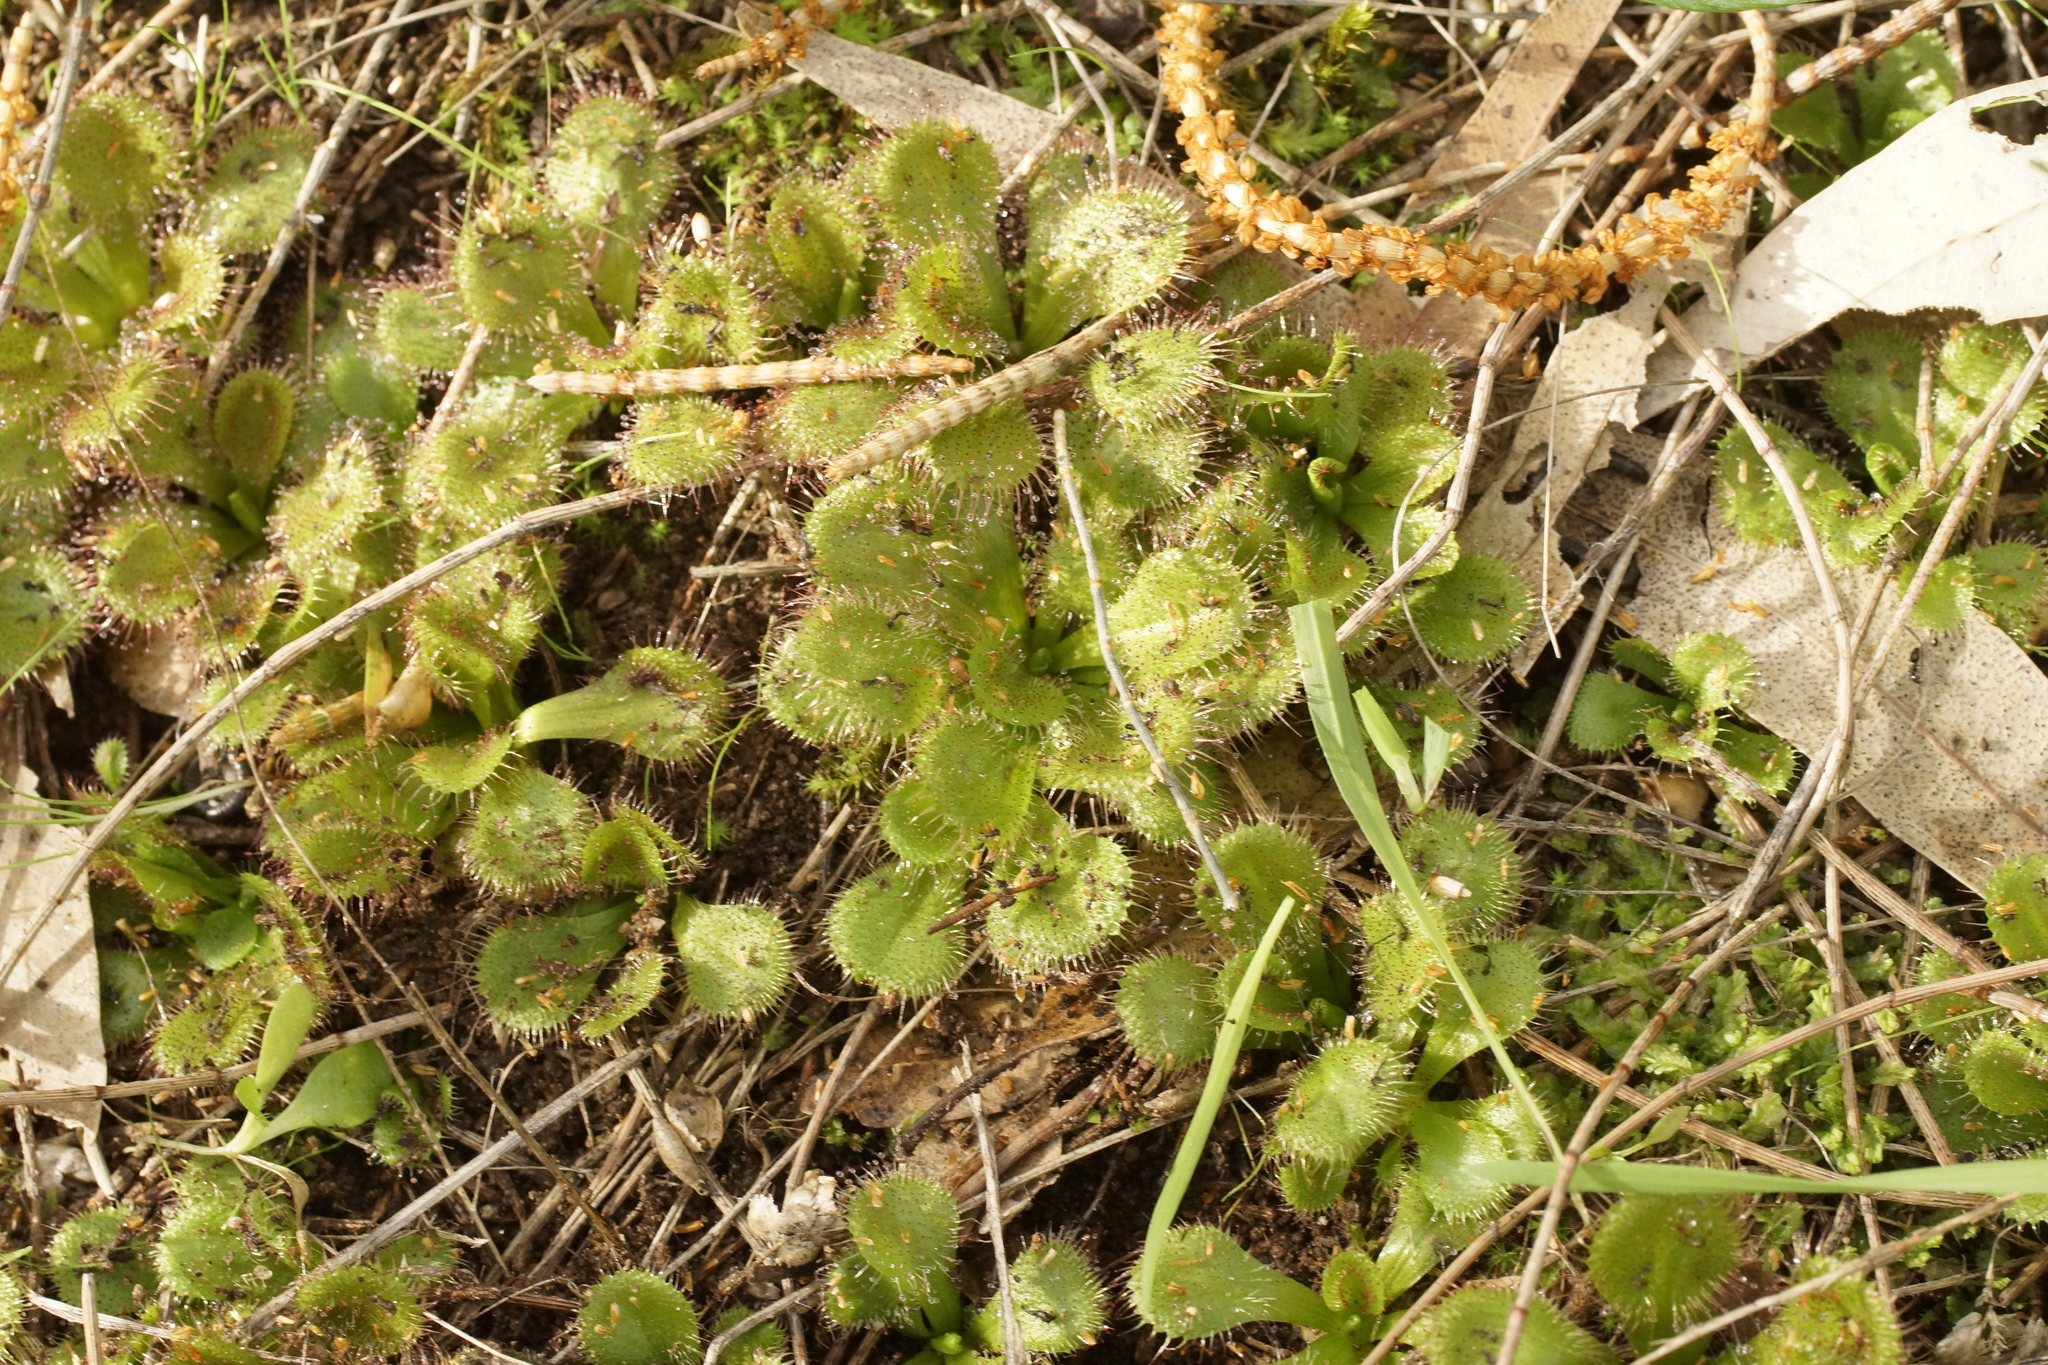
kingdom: Plantae
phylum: Tracheophyta
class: Magnoliopsida
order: Caryophyllales
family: Droseraceae
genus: Drosera
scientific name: Drosera aberrans
